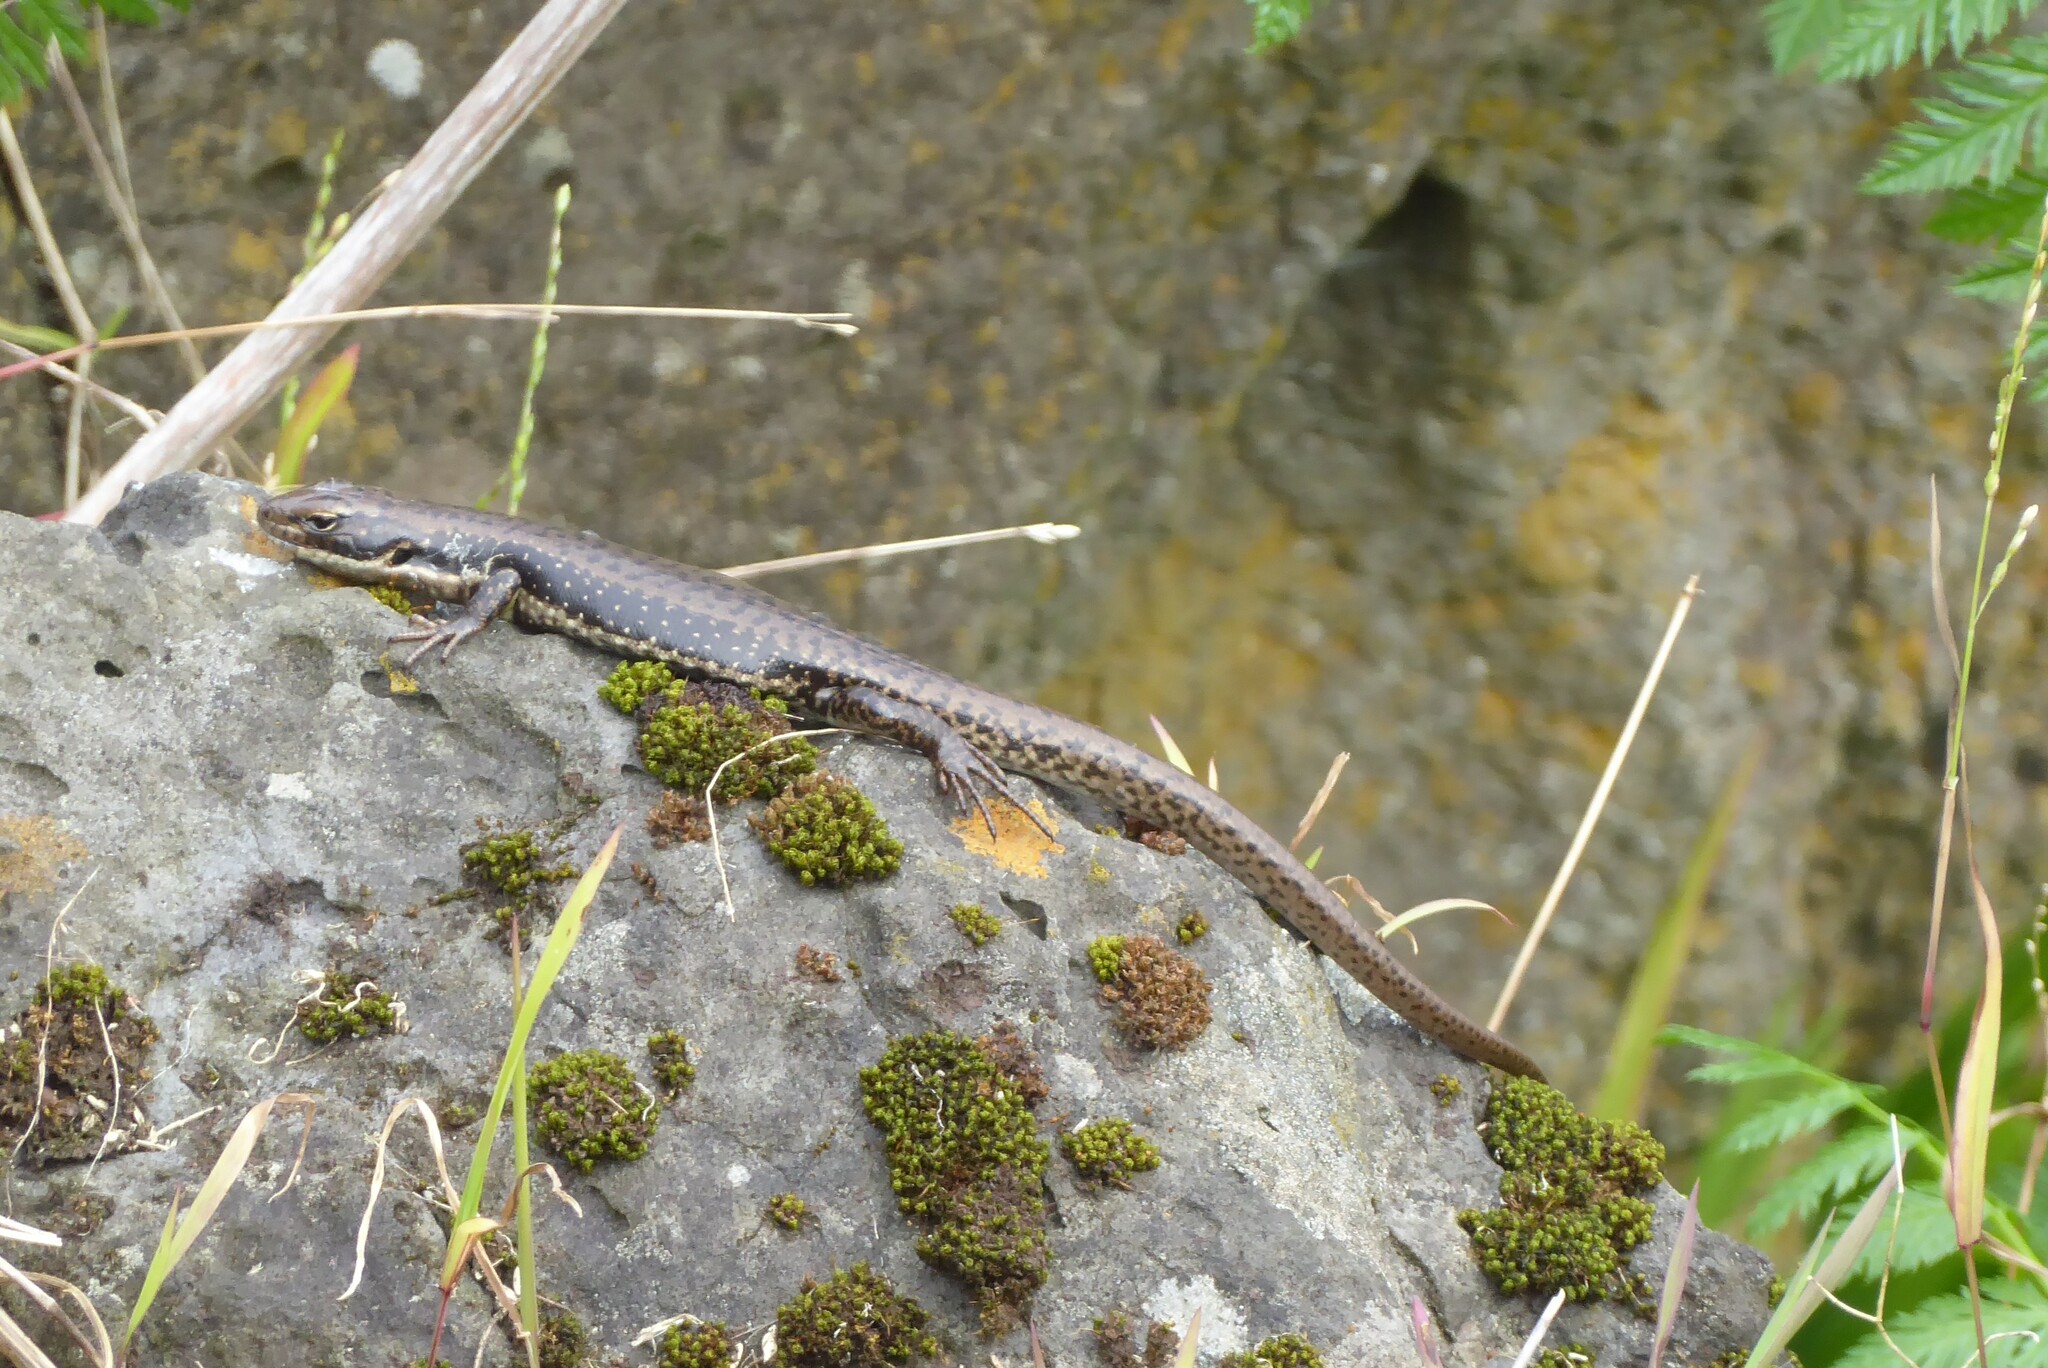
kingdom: Animalia
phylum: Chordata
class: Squamata
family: Scincidae
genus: Eulamprus
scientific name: Eulamprus tympanum
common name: Cool-temperate water-skink
